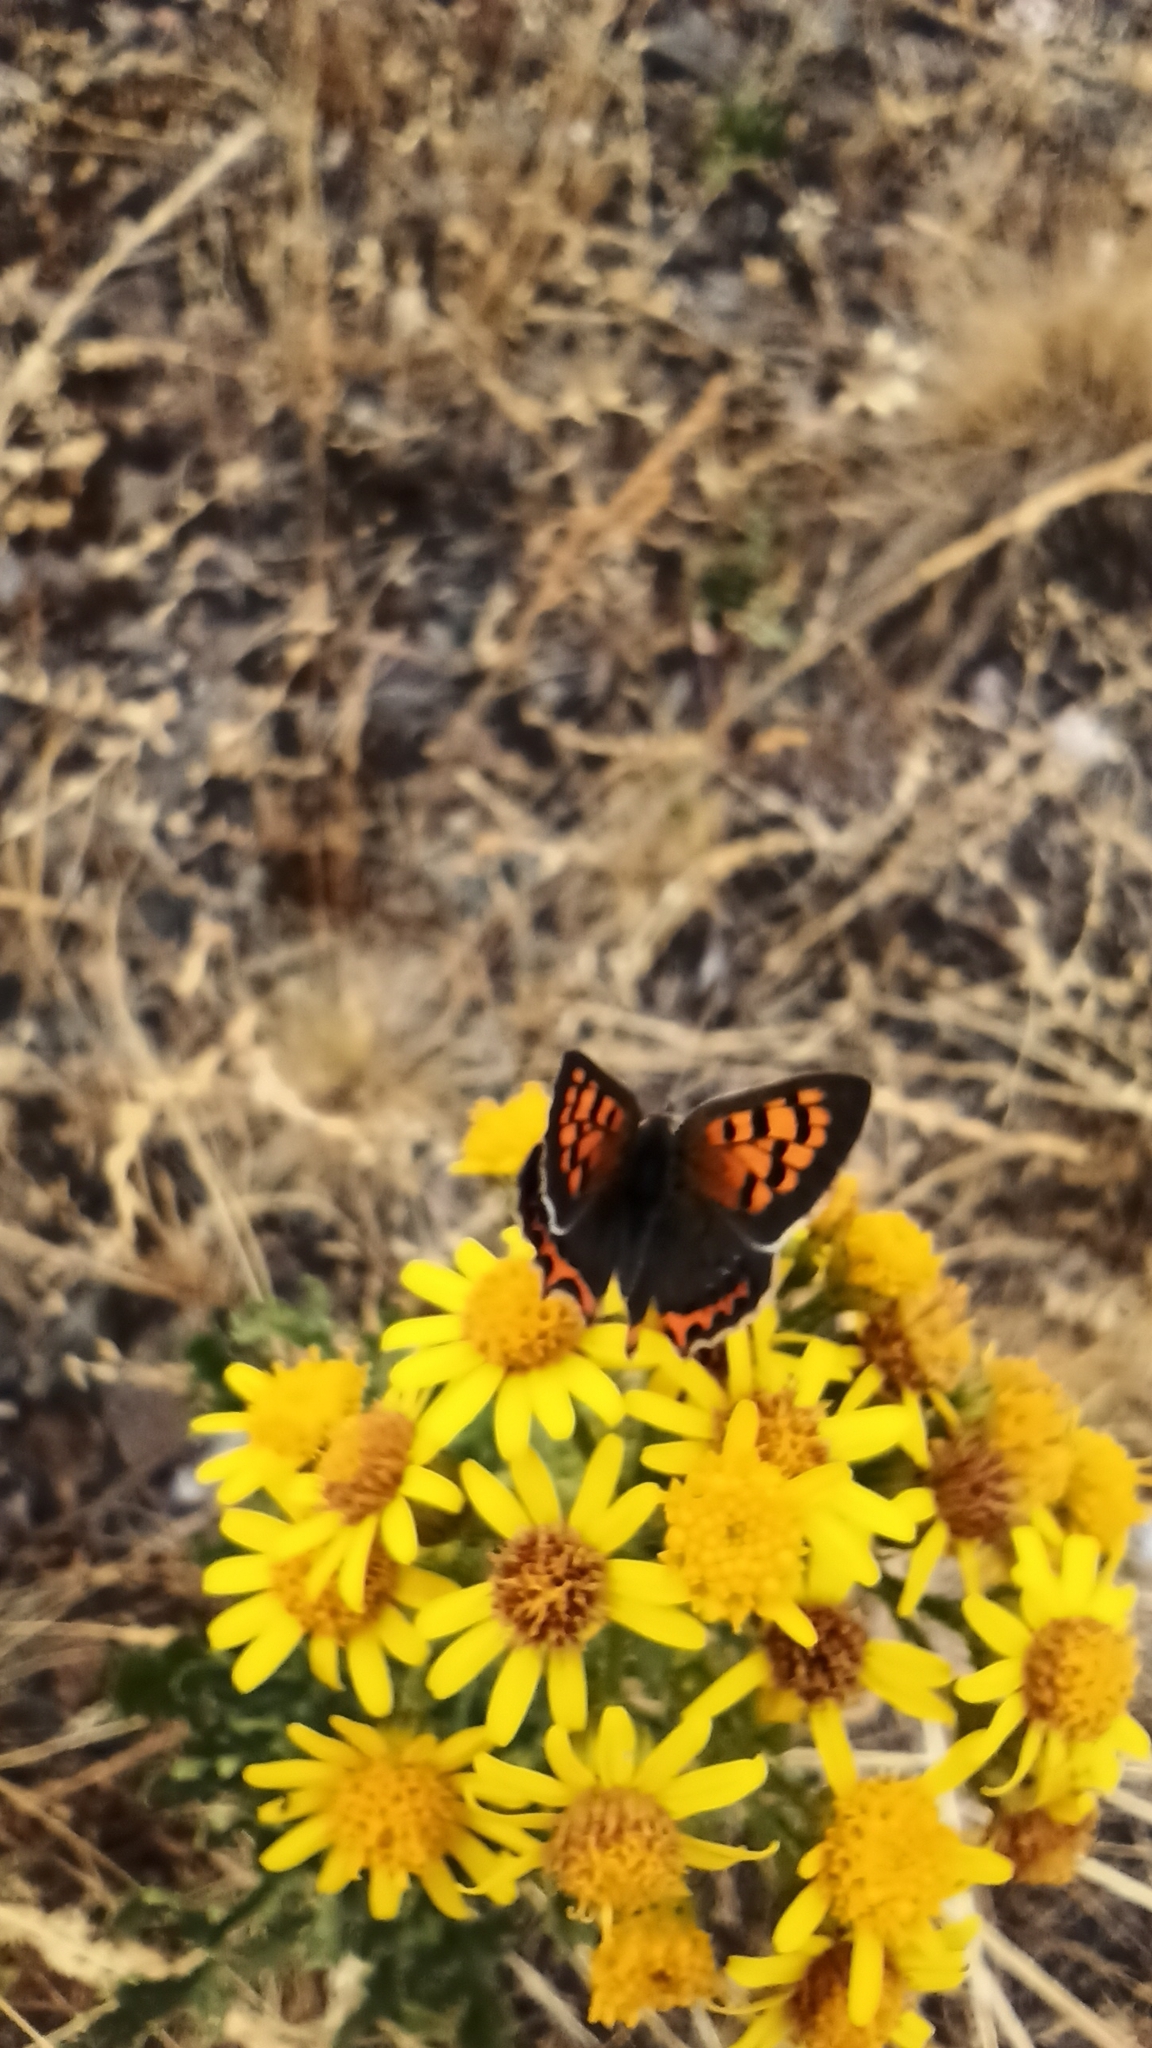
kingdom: Animalia
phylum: Arthropoda
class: Insecta
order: Lepidoptera
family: Lycaenidae
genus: Lycaena
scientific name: Lycaena phlaeas
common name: Small copper
